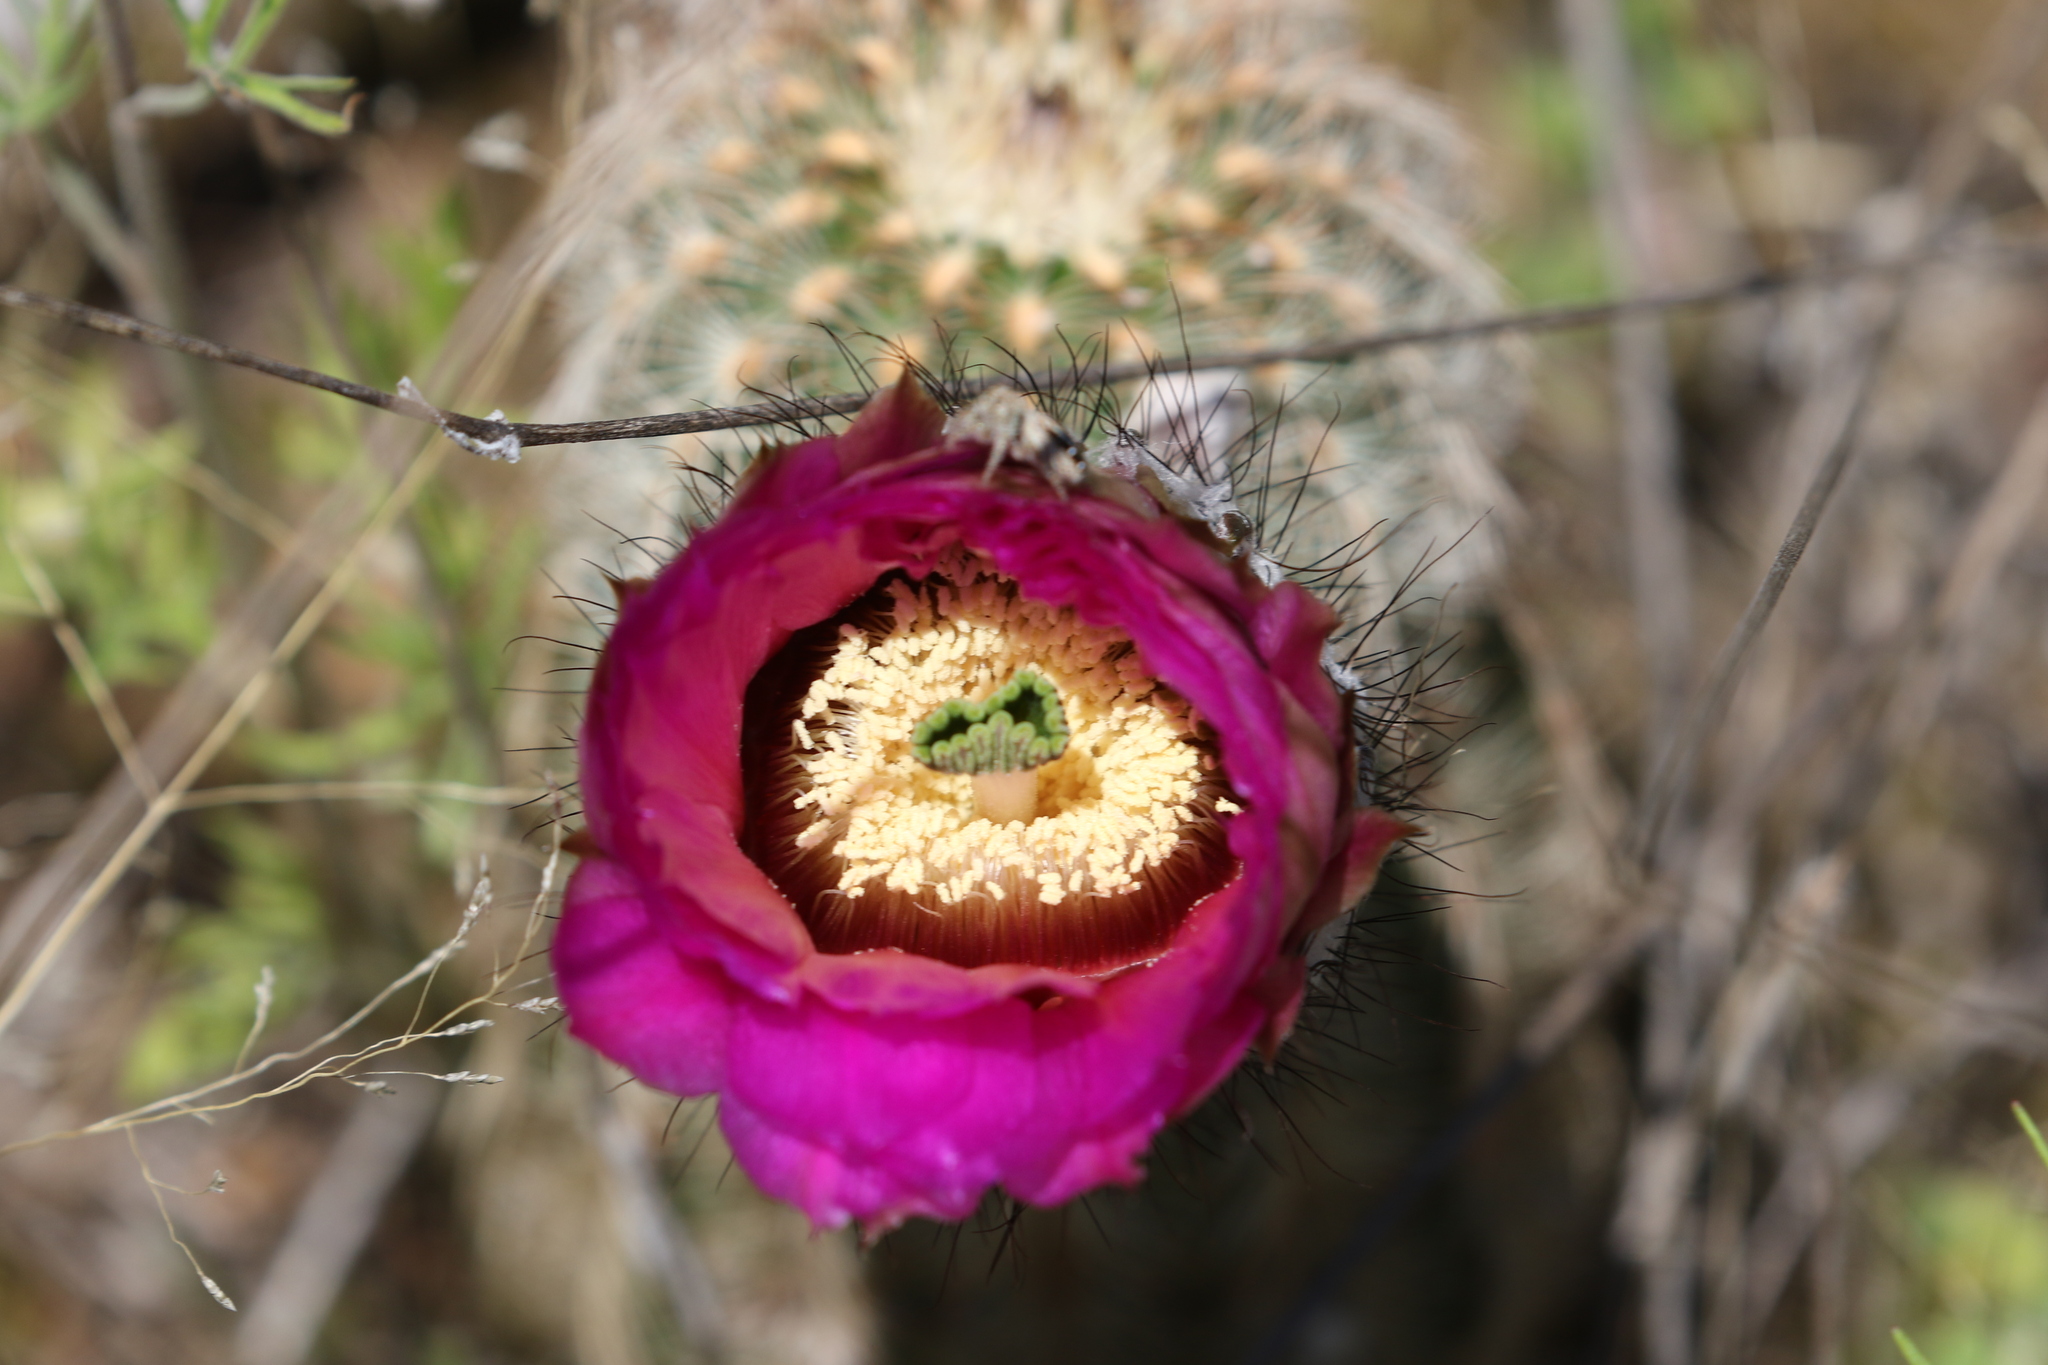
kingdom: Plantae
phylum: Tracheophyta
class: Magnoliopsida
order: Caryophyllales
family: Cactaceae
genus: Echinocereus
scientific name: Echinocereus reichenbachii
